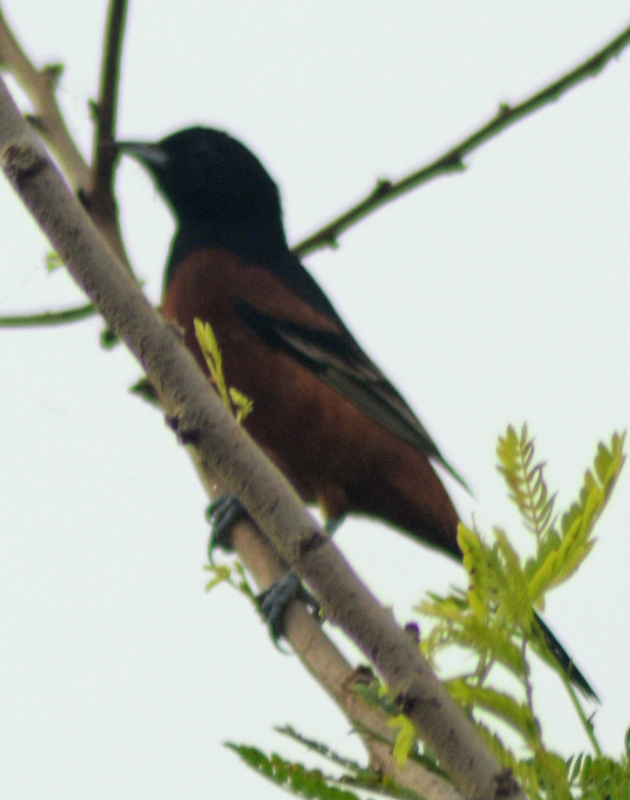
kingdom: Animalia
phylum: Chordata
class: Aves
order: Passeriformes
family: Icteridae
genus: Icterus
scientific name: Icterus spurius
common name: Orchard oriole
